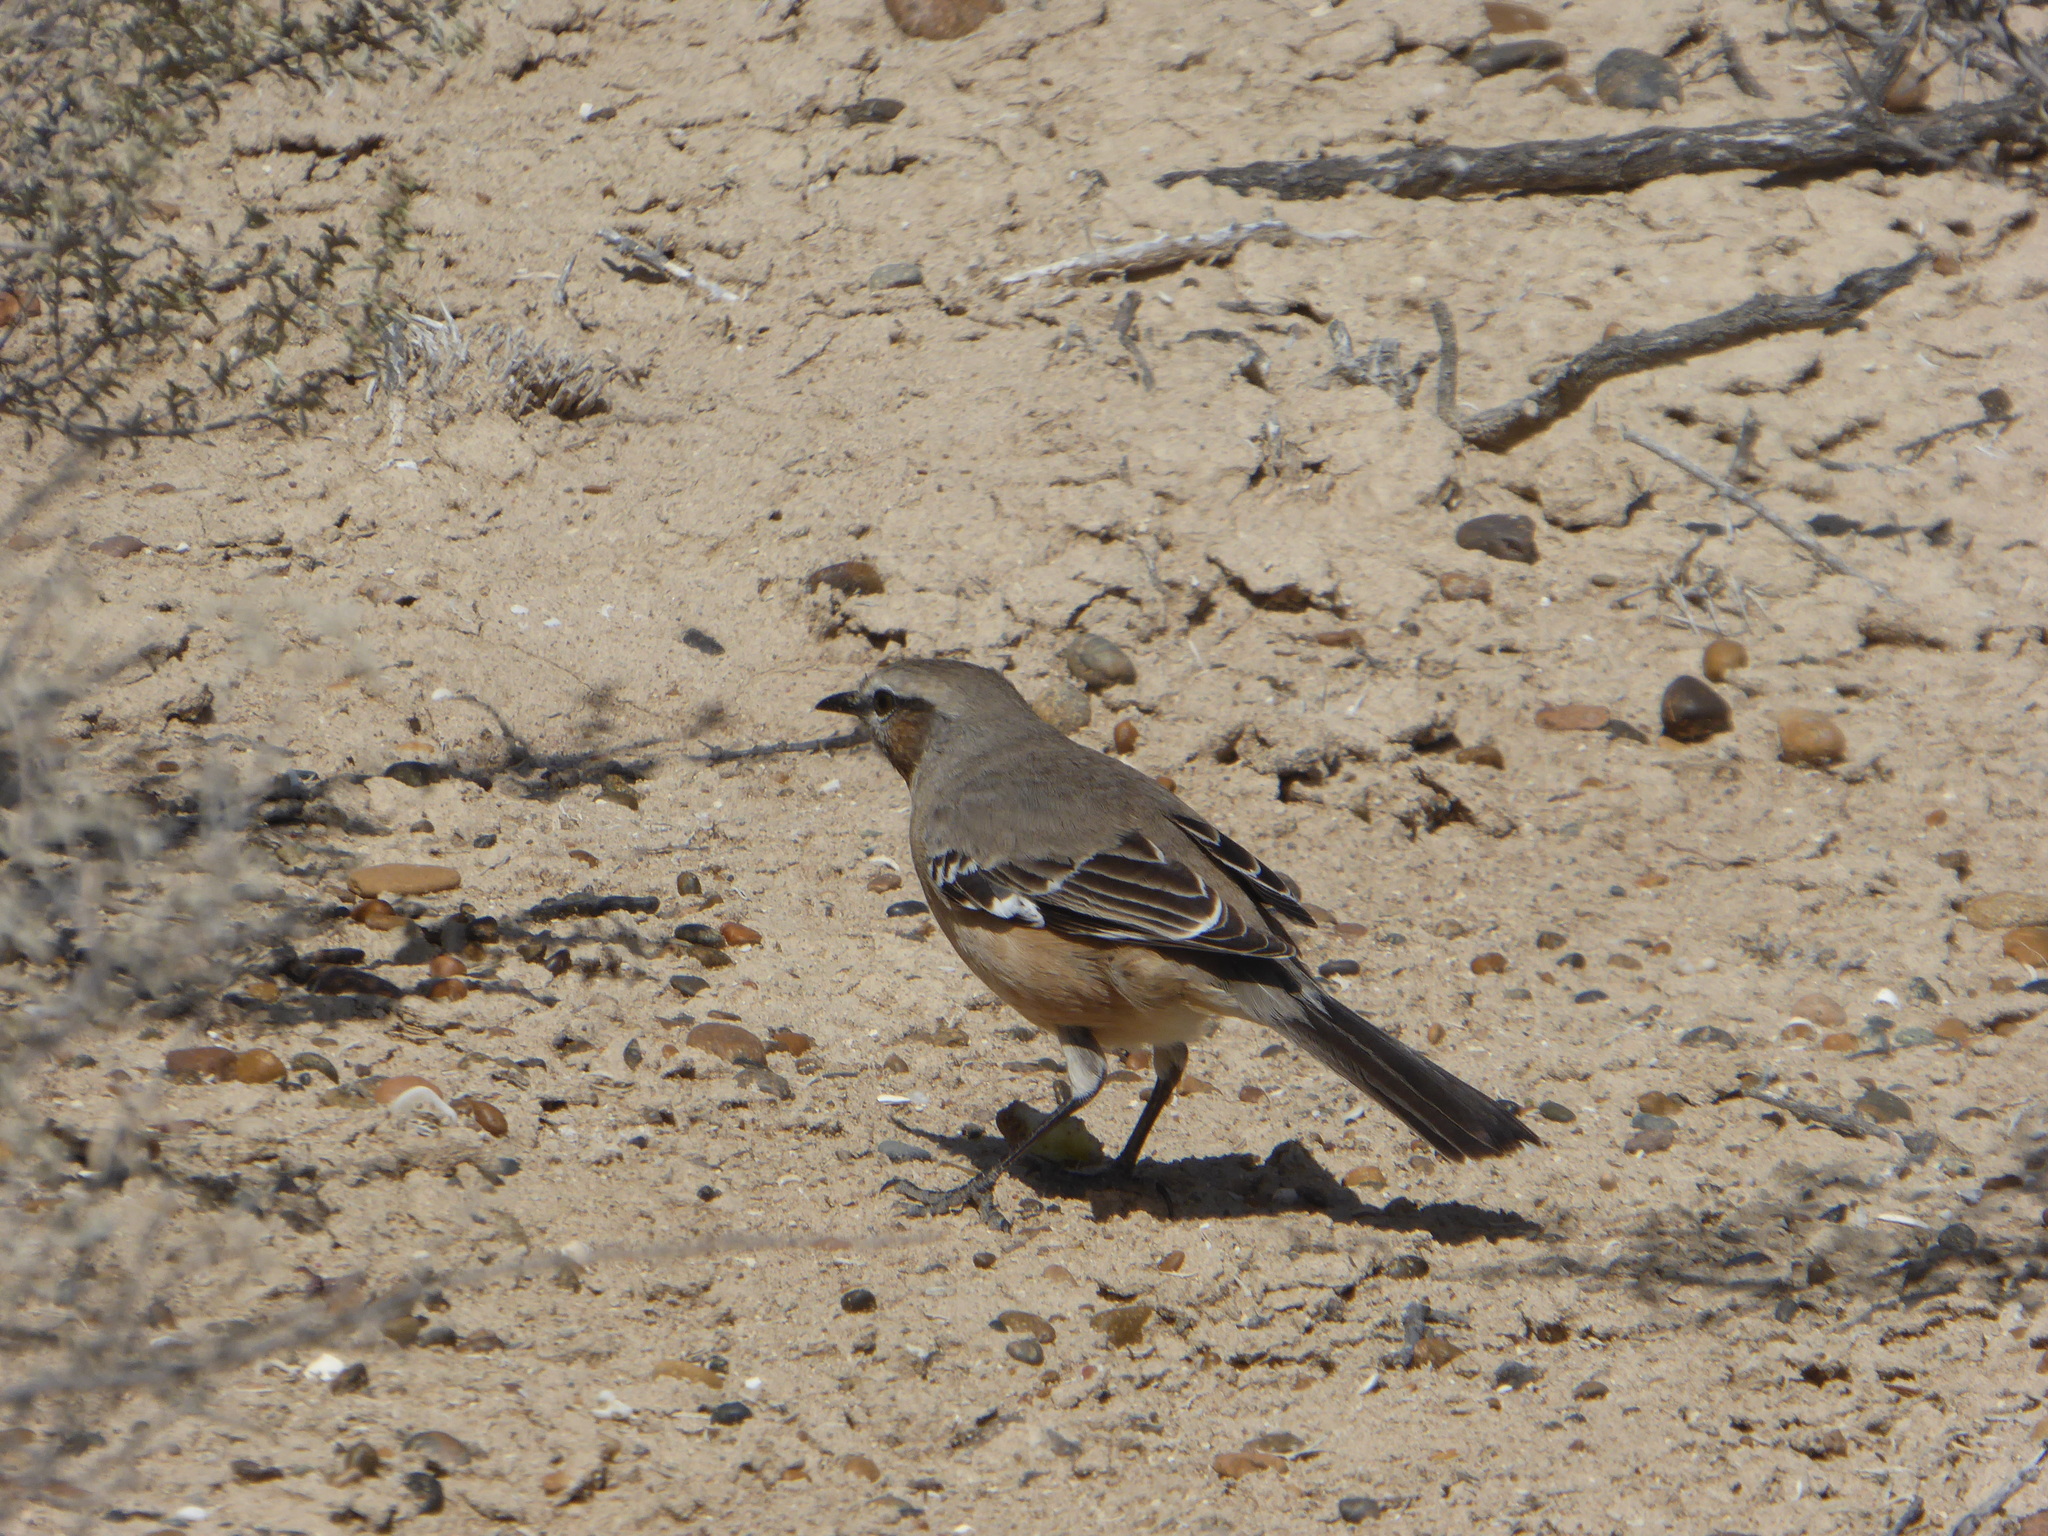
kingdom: Animalia
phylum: Chordata
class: Aves
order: Passeriformes
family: Mimidae
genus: Mimus
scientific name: Mimus patagonicus
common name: Patagonian mockingbird
